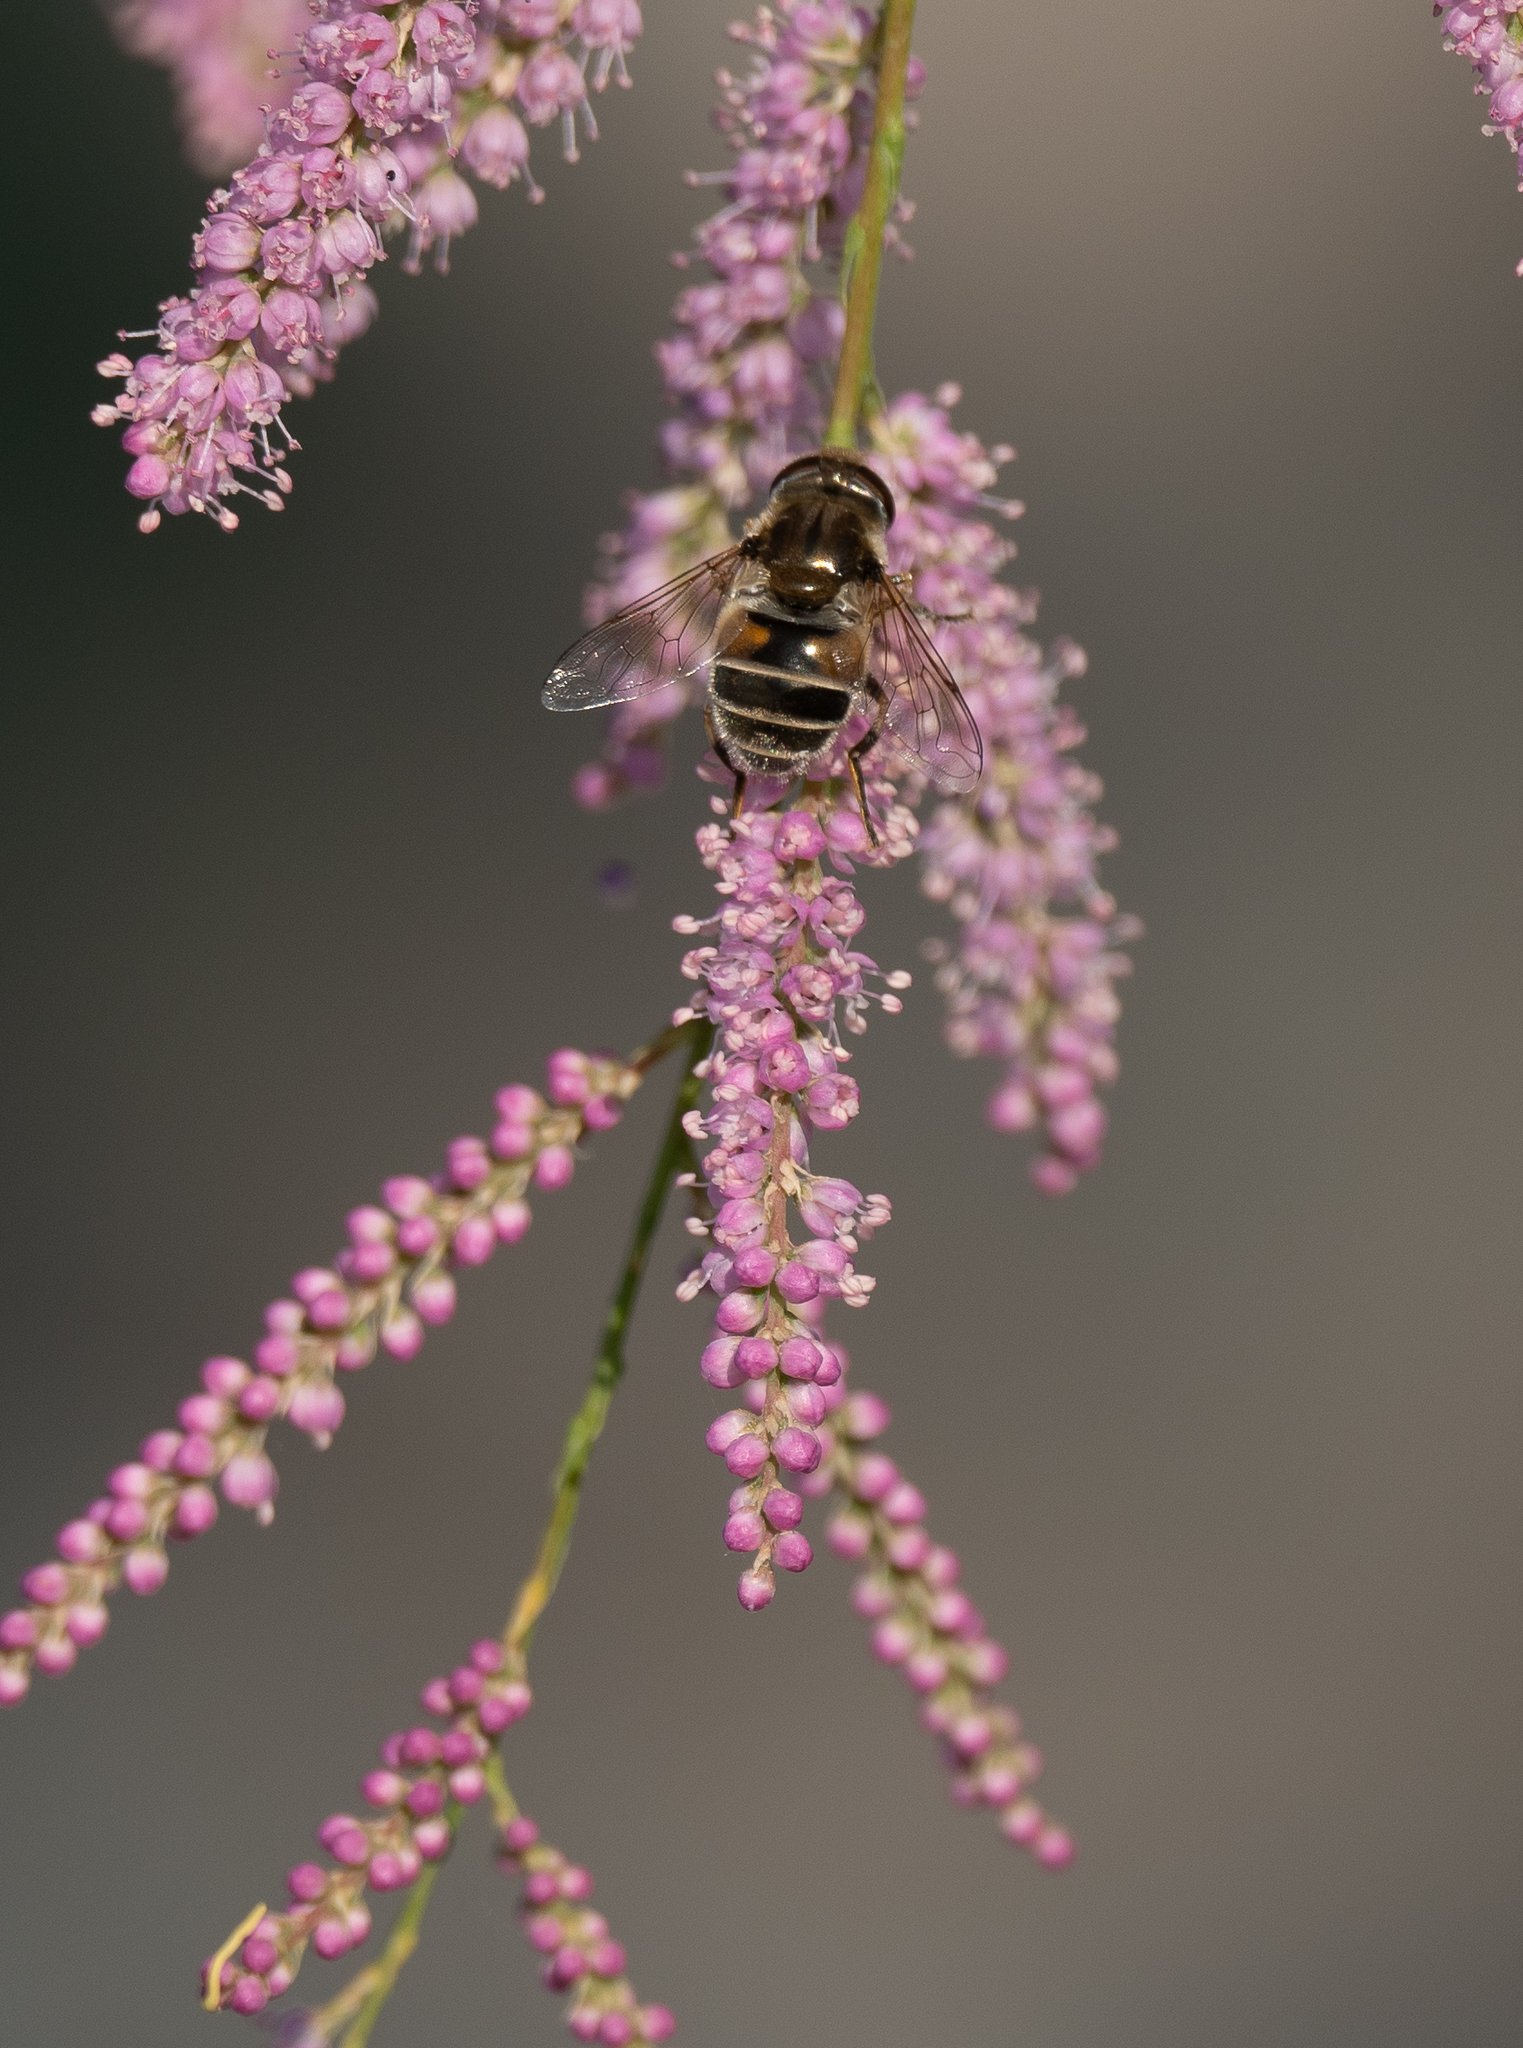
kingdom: Animalia
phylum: Arthropoda
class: Insecta
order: Diptera
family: Syrphidae
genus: Eristalis
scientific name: Eristalis arbustorum
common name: Hover fly
